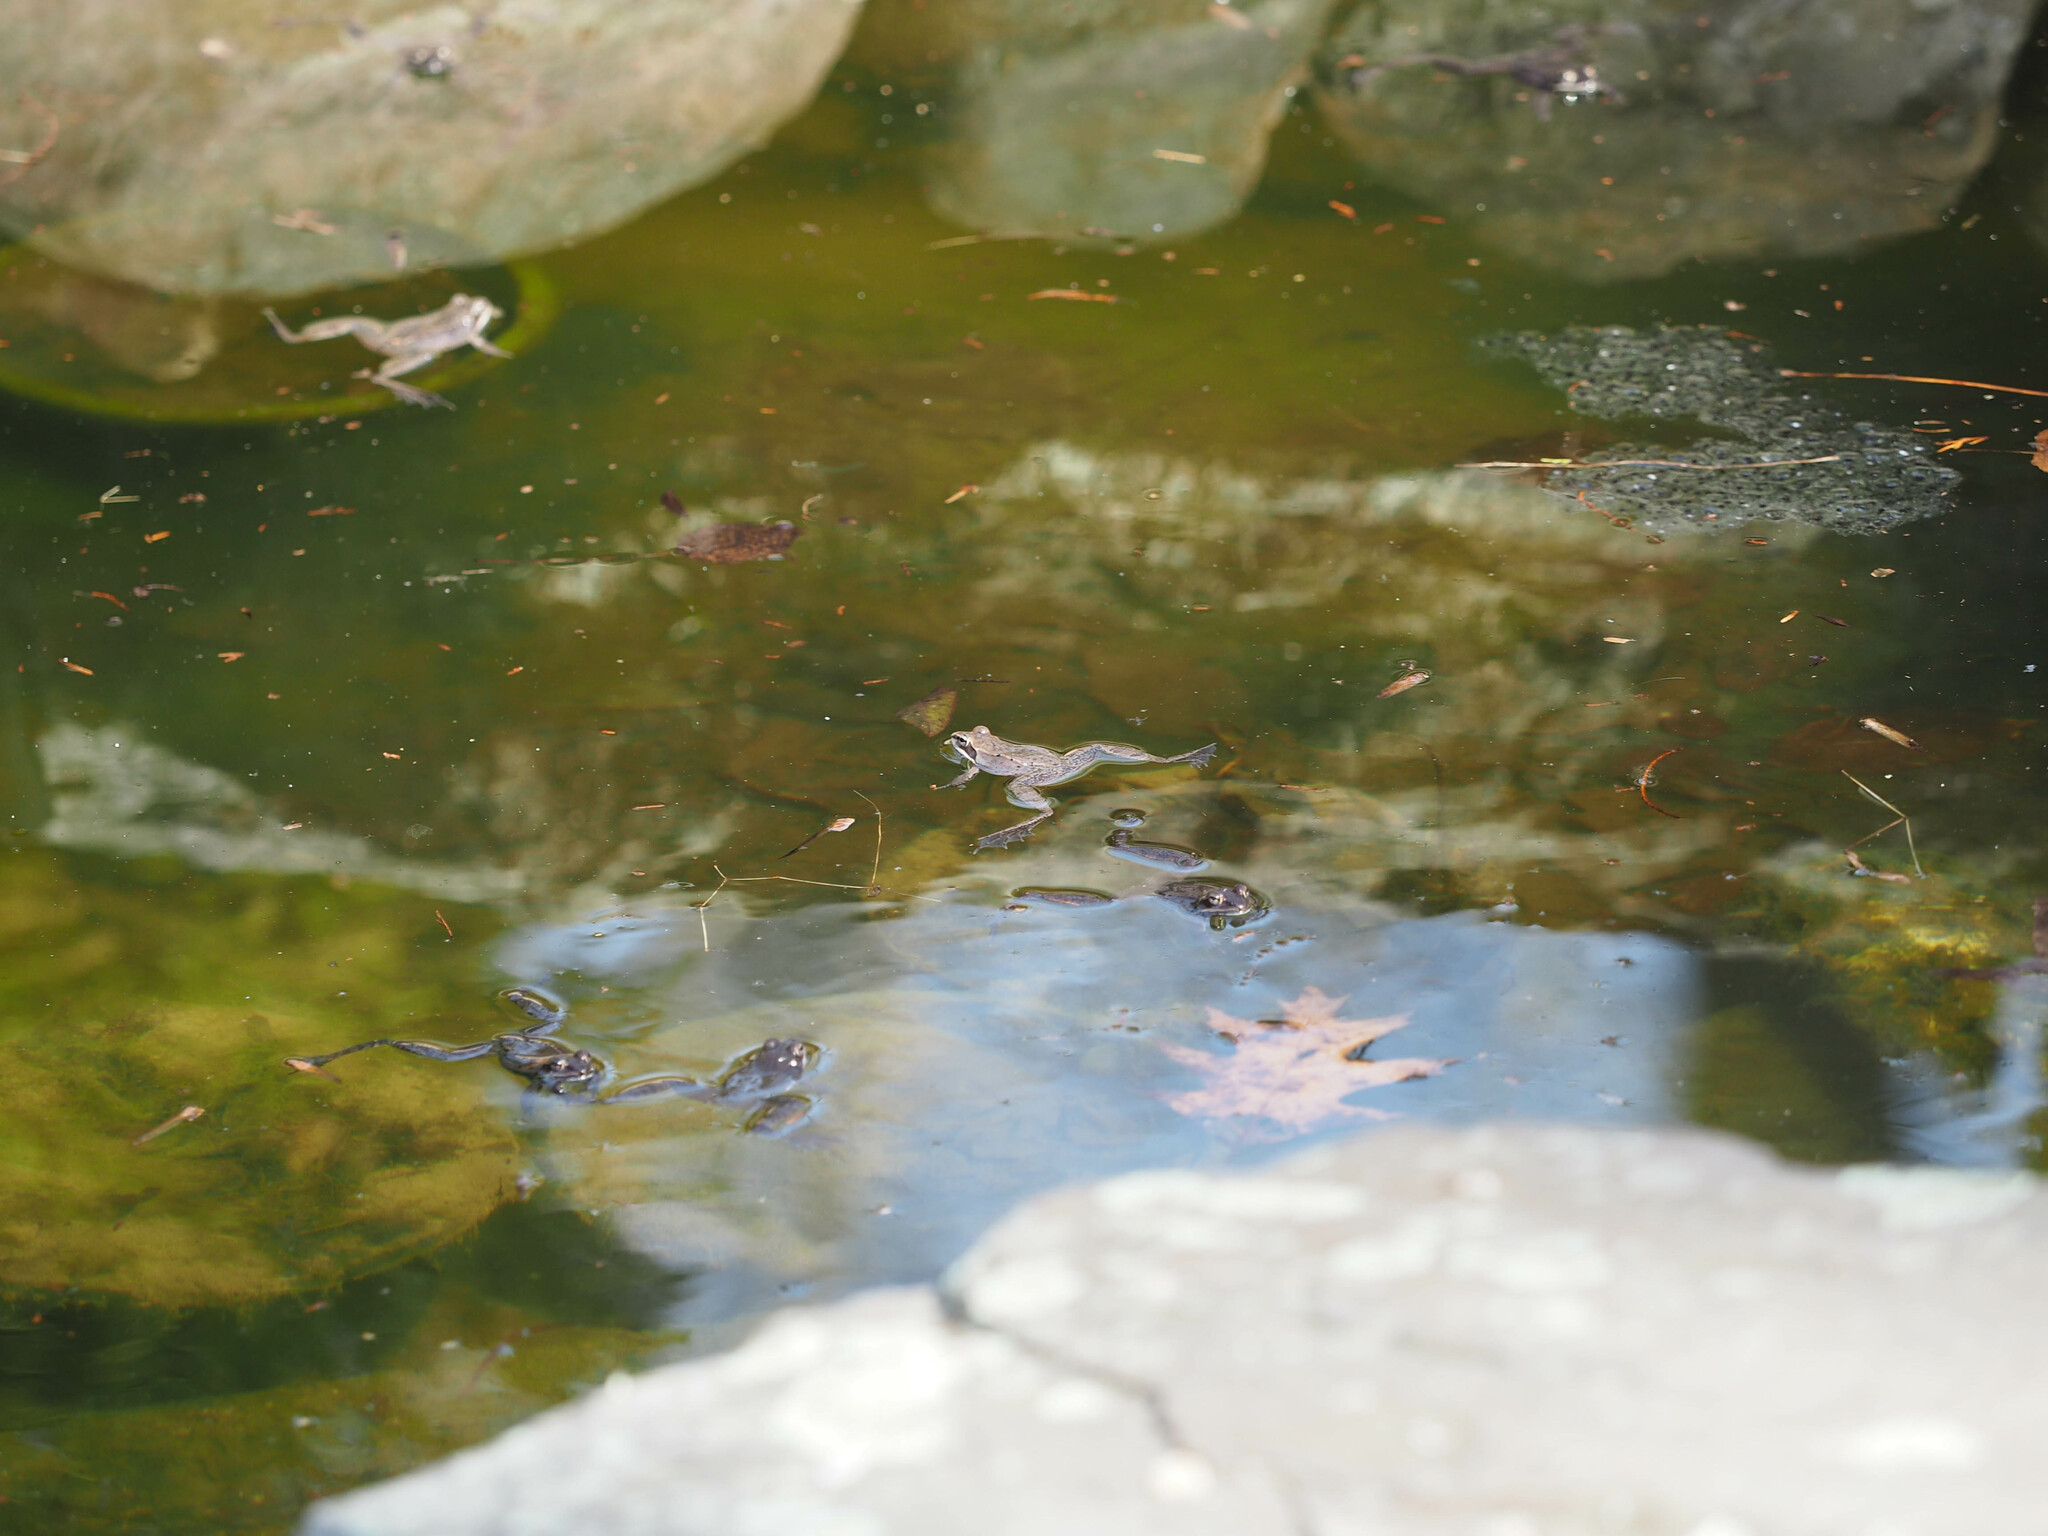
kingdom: Animalia
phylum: Chordata
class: Amphibia
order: Anura
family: Ranidae
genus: Lithobates
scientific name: Lithobates sylvaticus
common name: Wood frog
